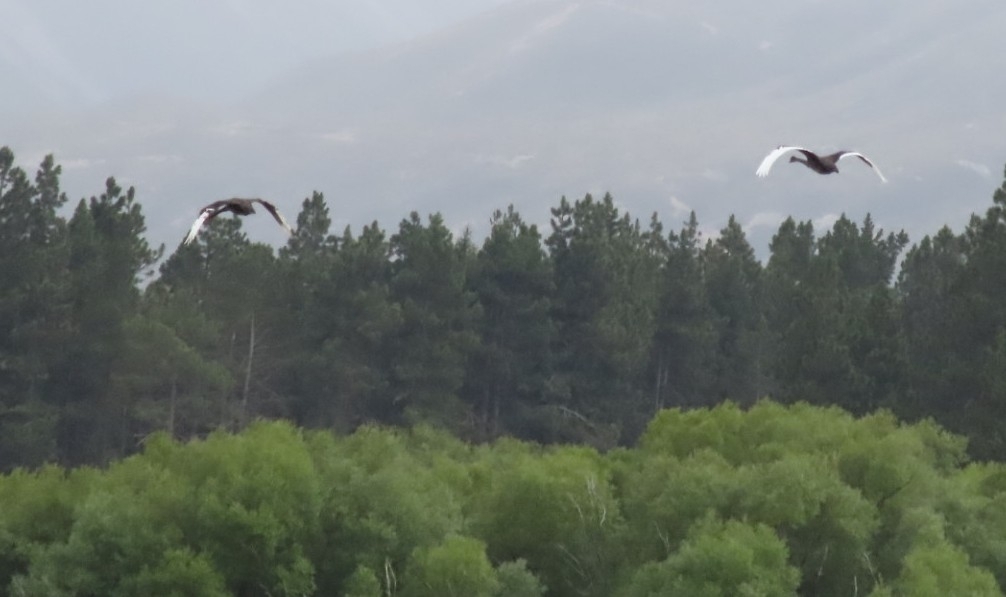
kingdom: Animalia
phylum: Chordata
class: Aves
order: Anseriformes
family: Anatidae
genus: Cygnus
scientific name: Cygnus atratus
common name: Black swan
